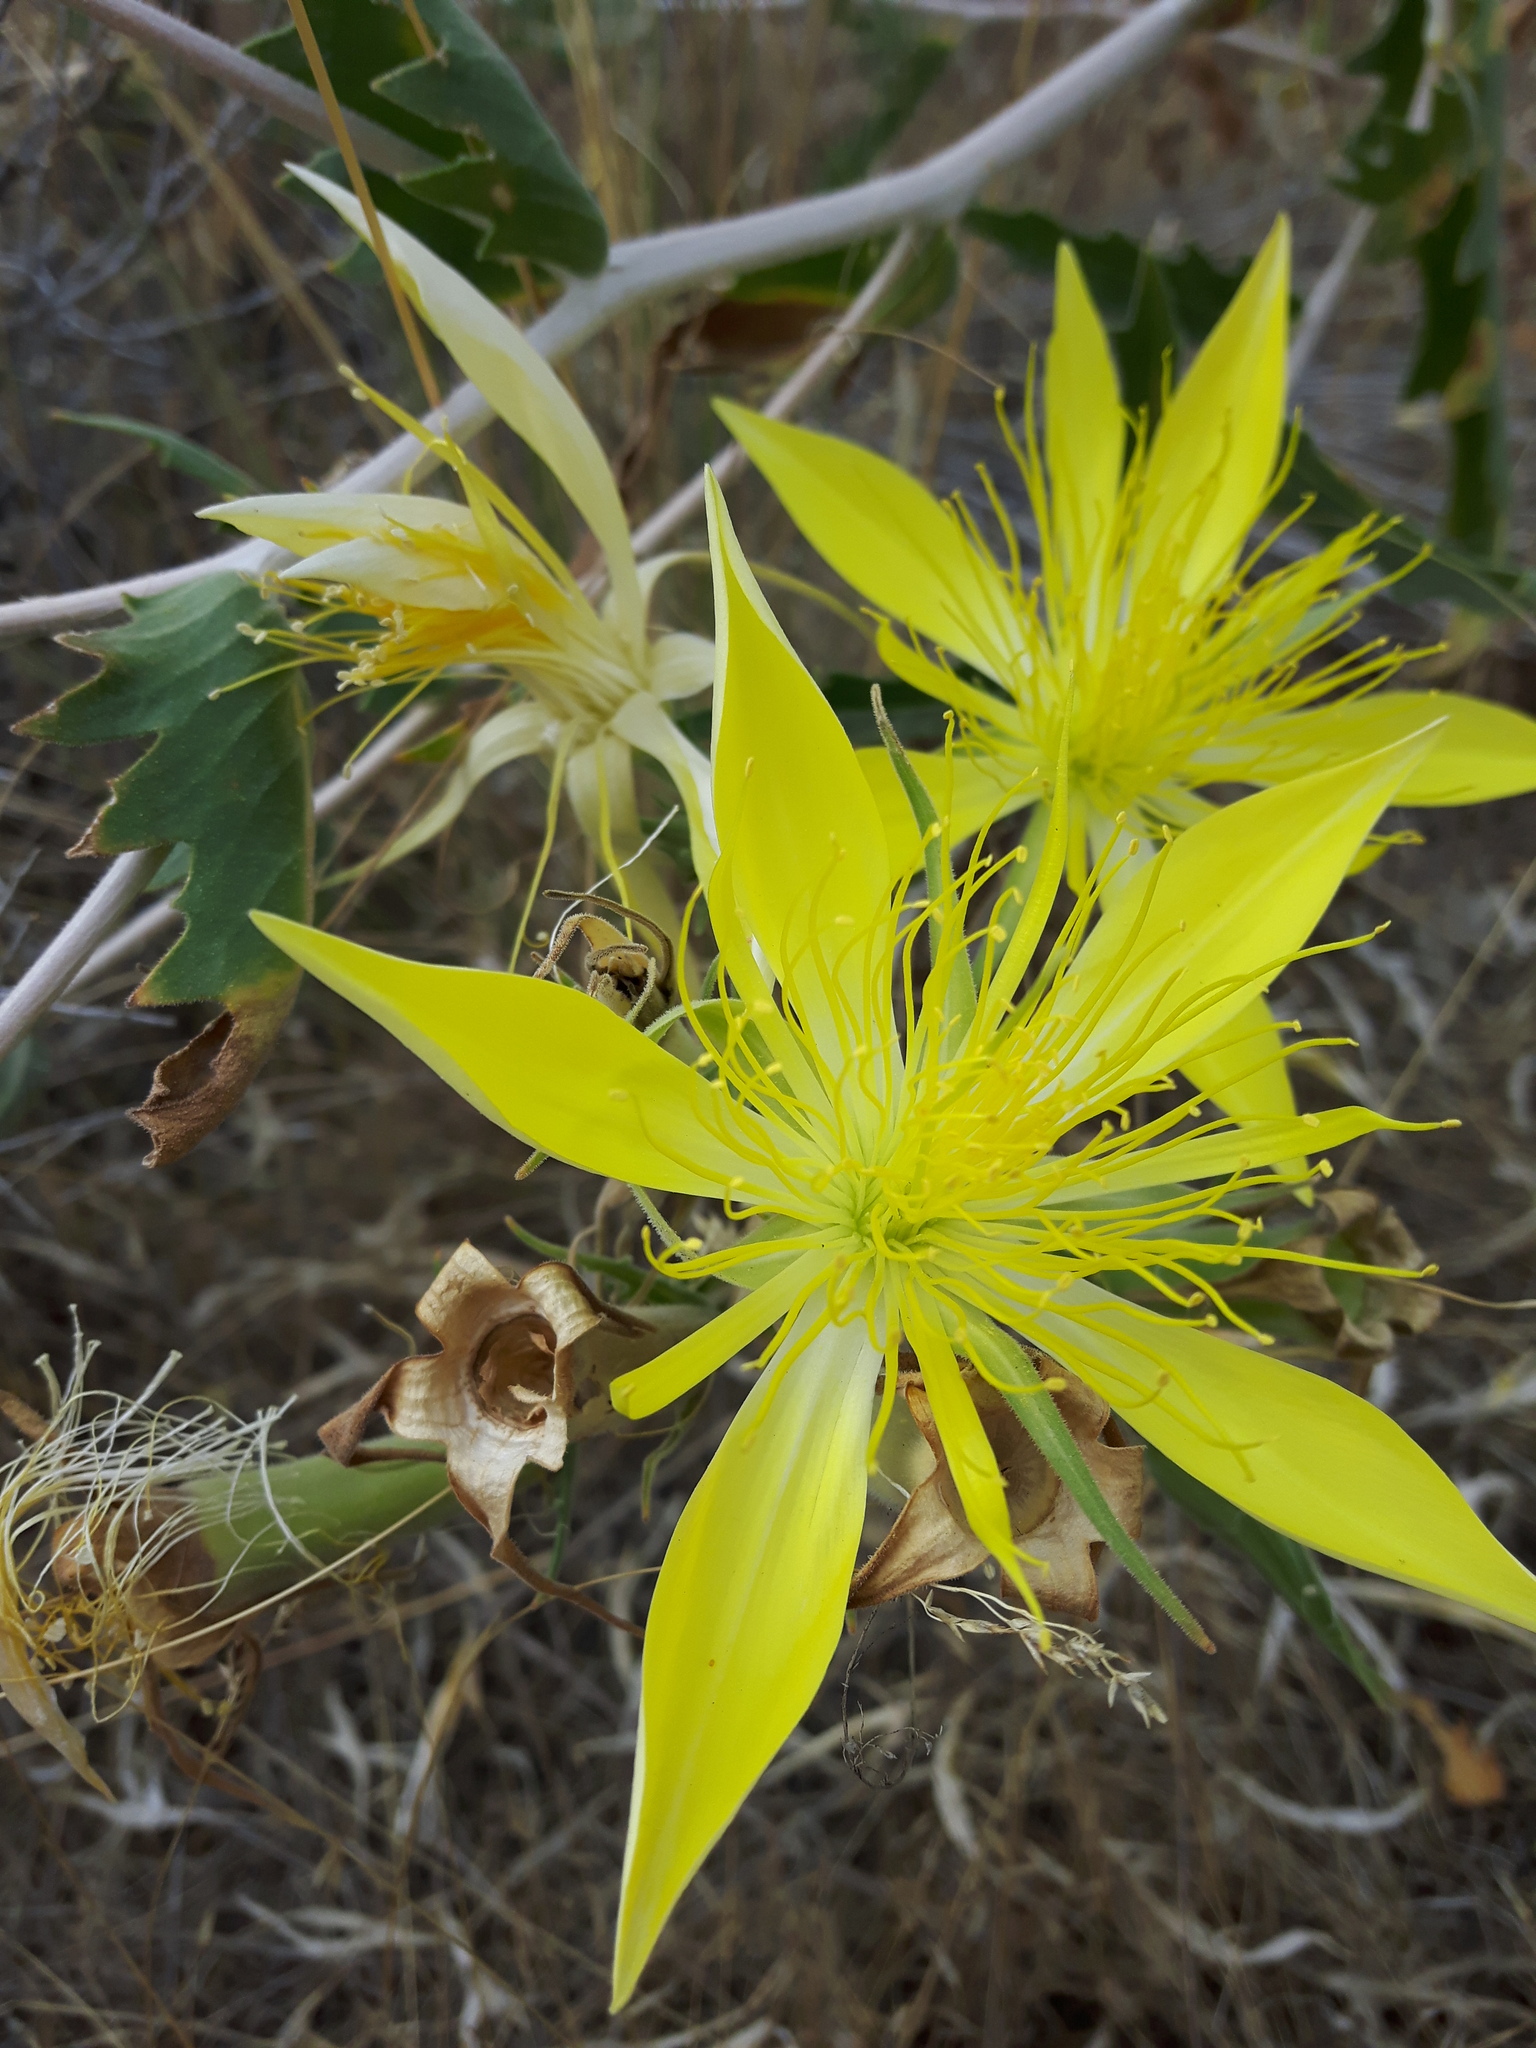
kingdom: Plantae
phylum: Tracheophyta
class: Magnoliopsida
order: Cornales
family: Loasaceae
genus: Mentzelia
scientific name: Mentzelia laevicaulis
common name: Smooth-stem blazingstar
